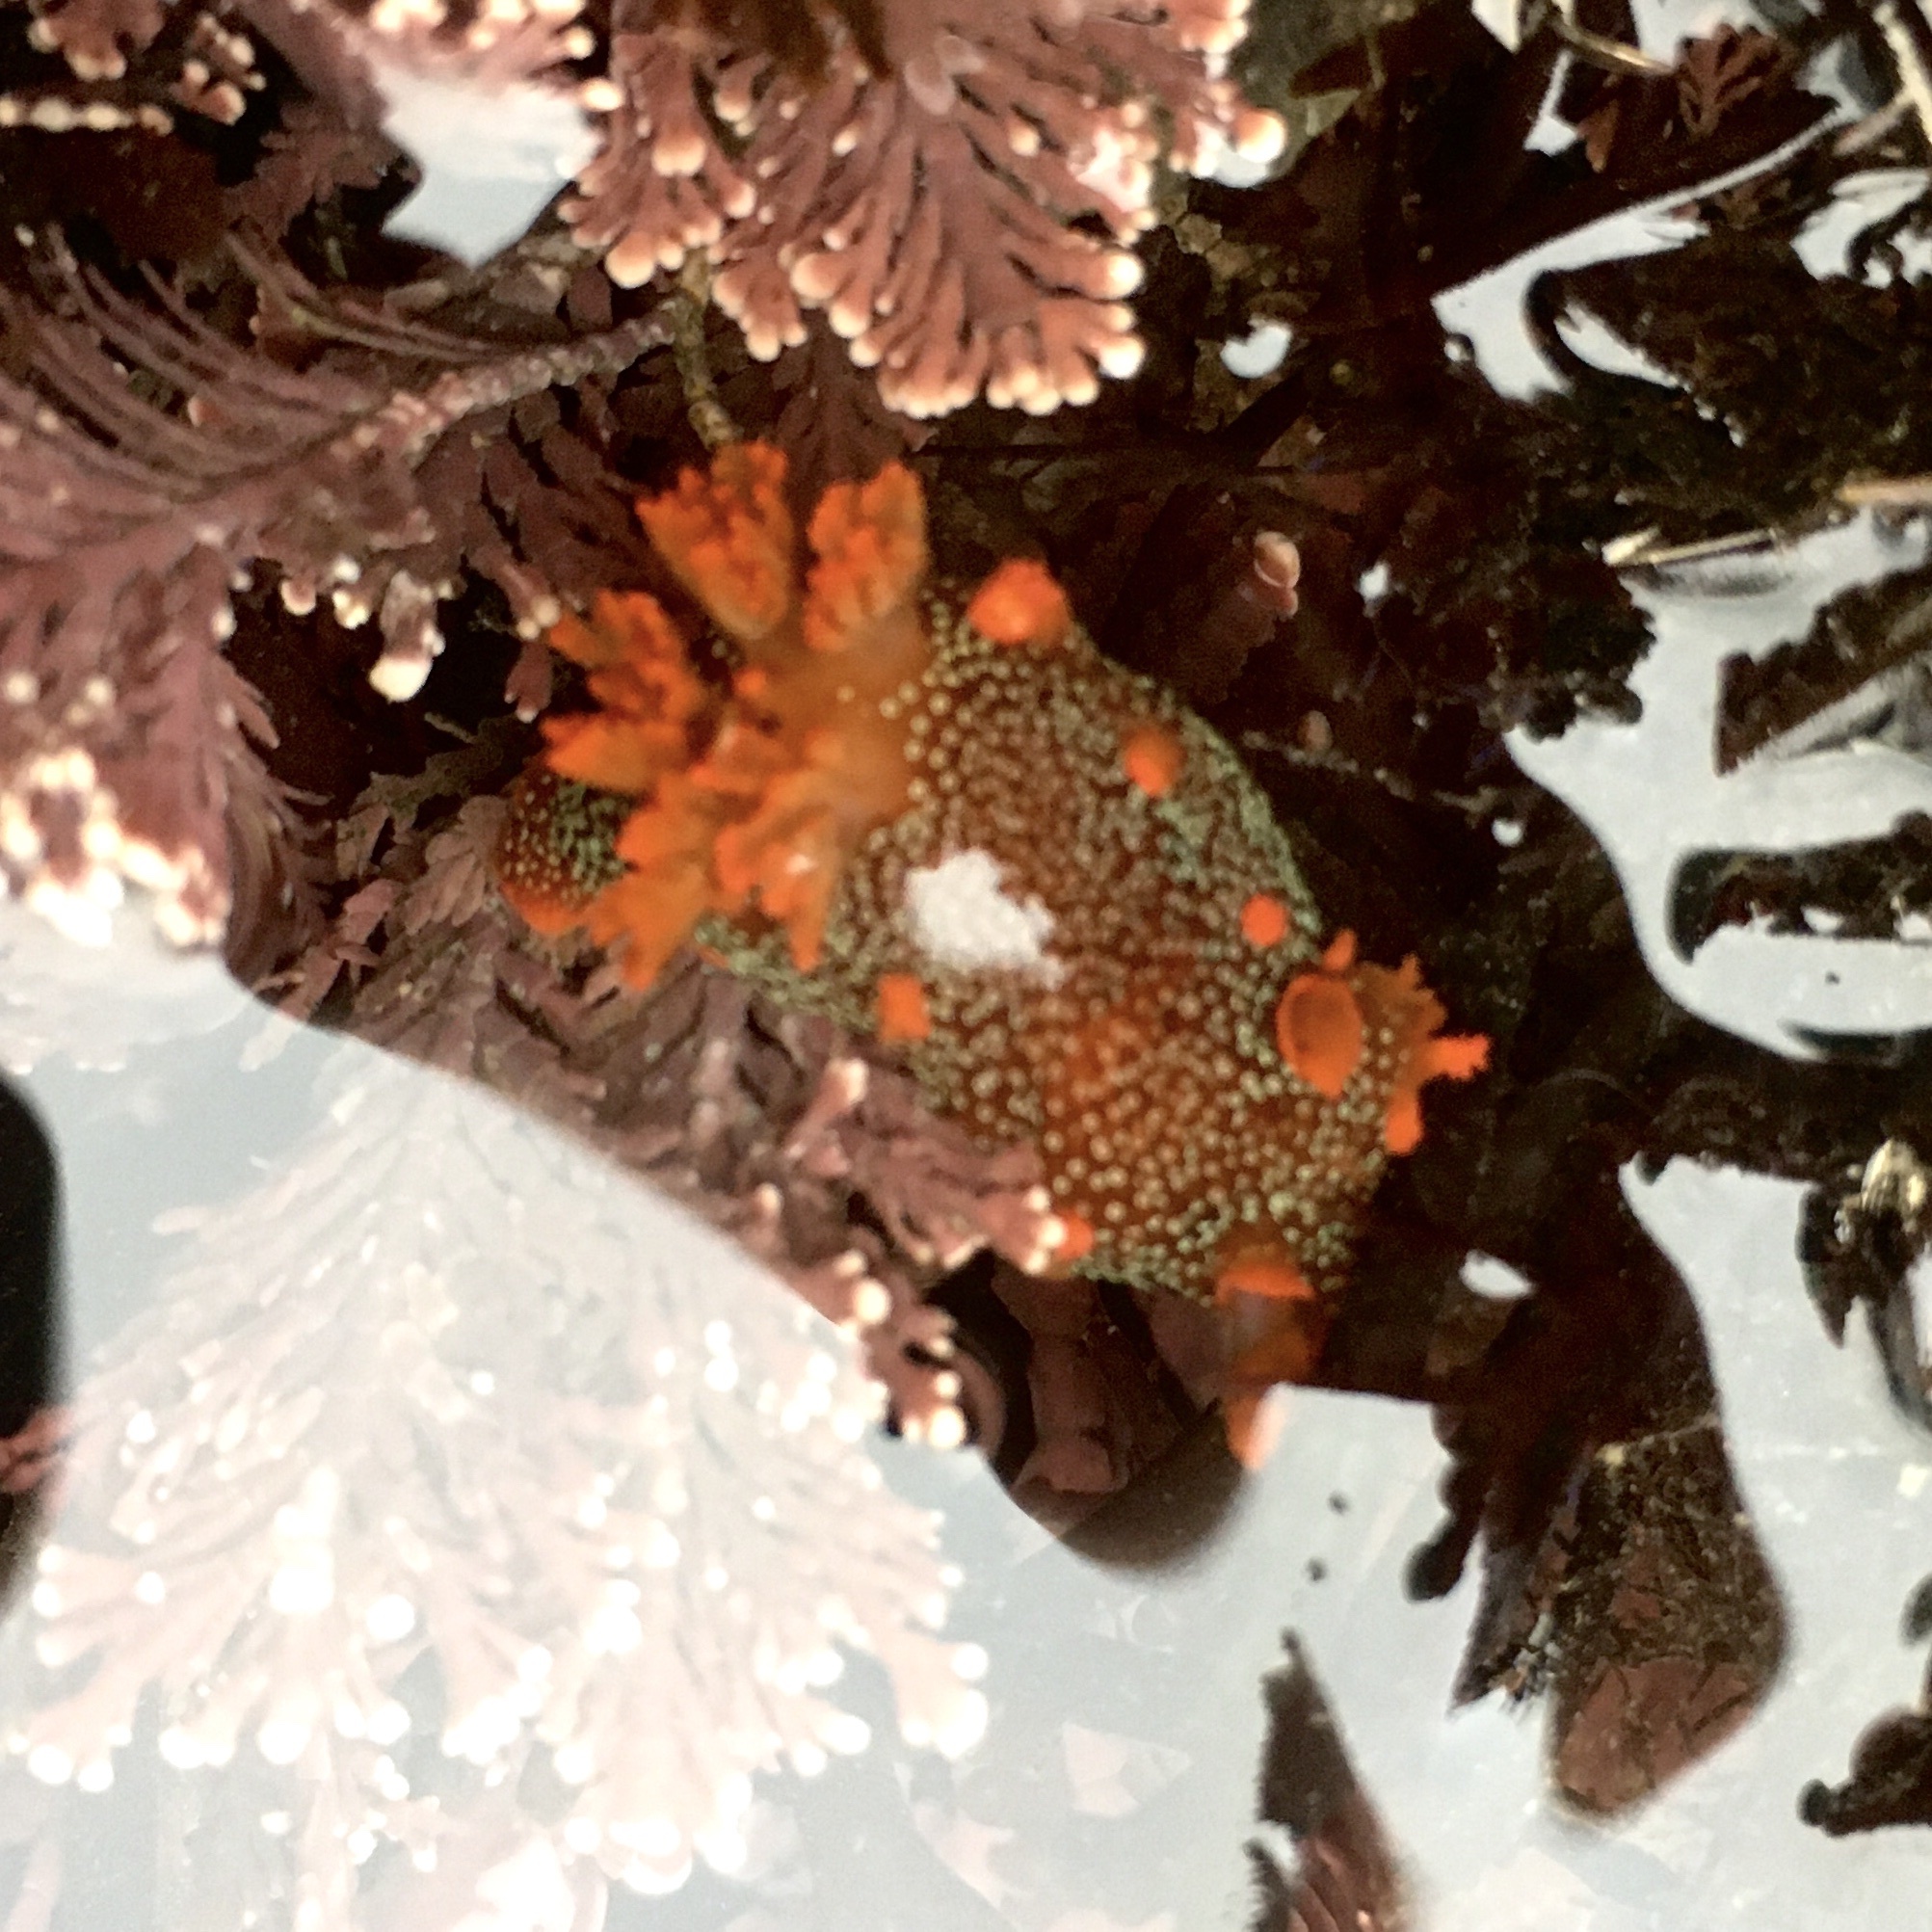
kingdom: Animalia
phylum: Mollusca
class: Gastropoda
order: Nudibranchia
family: Polyceridae
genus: Triopha
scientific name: Triopha maculata
